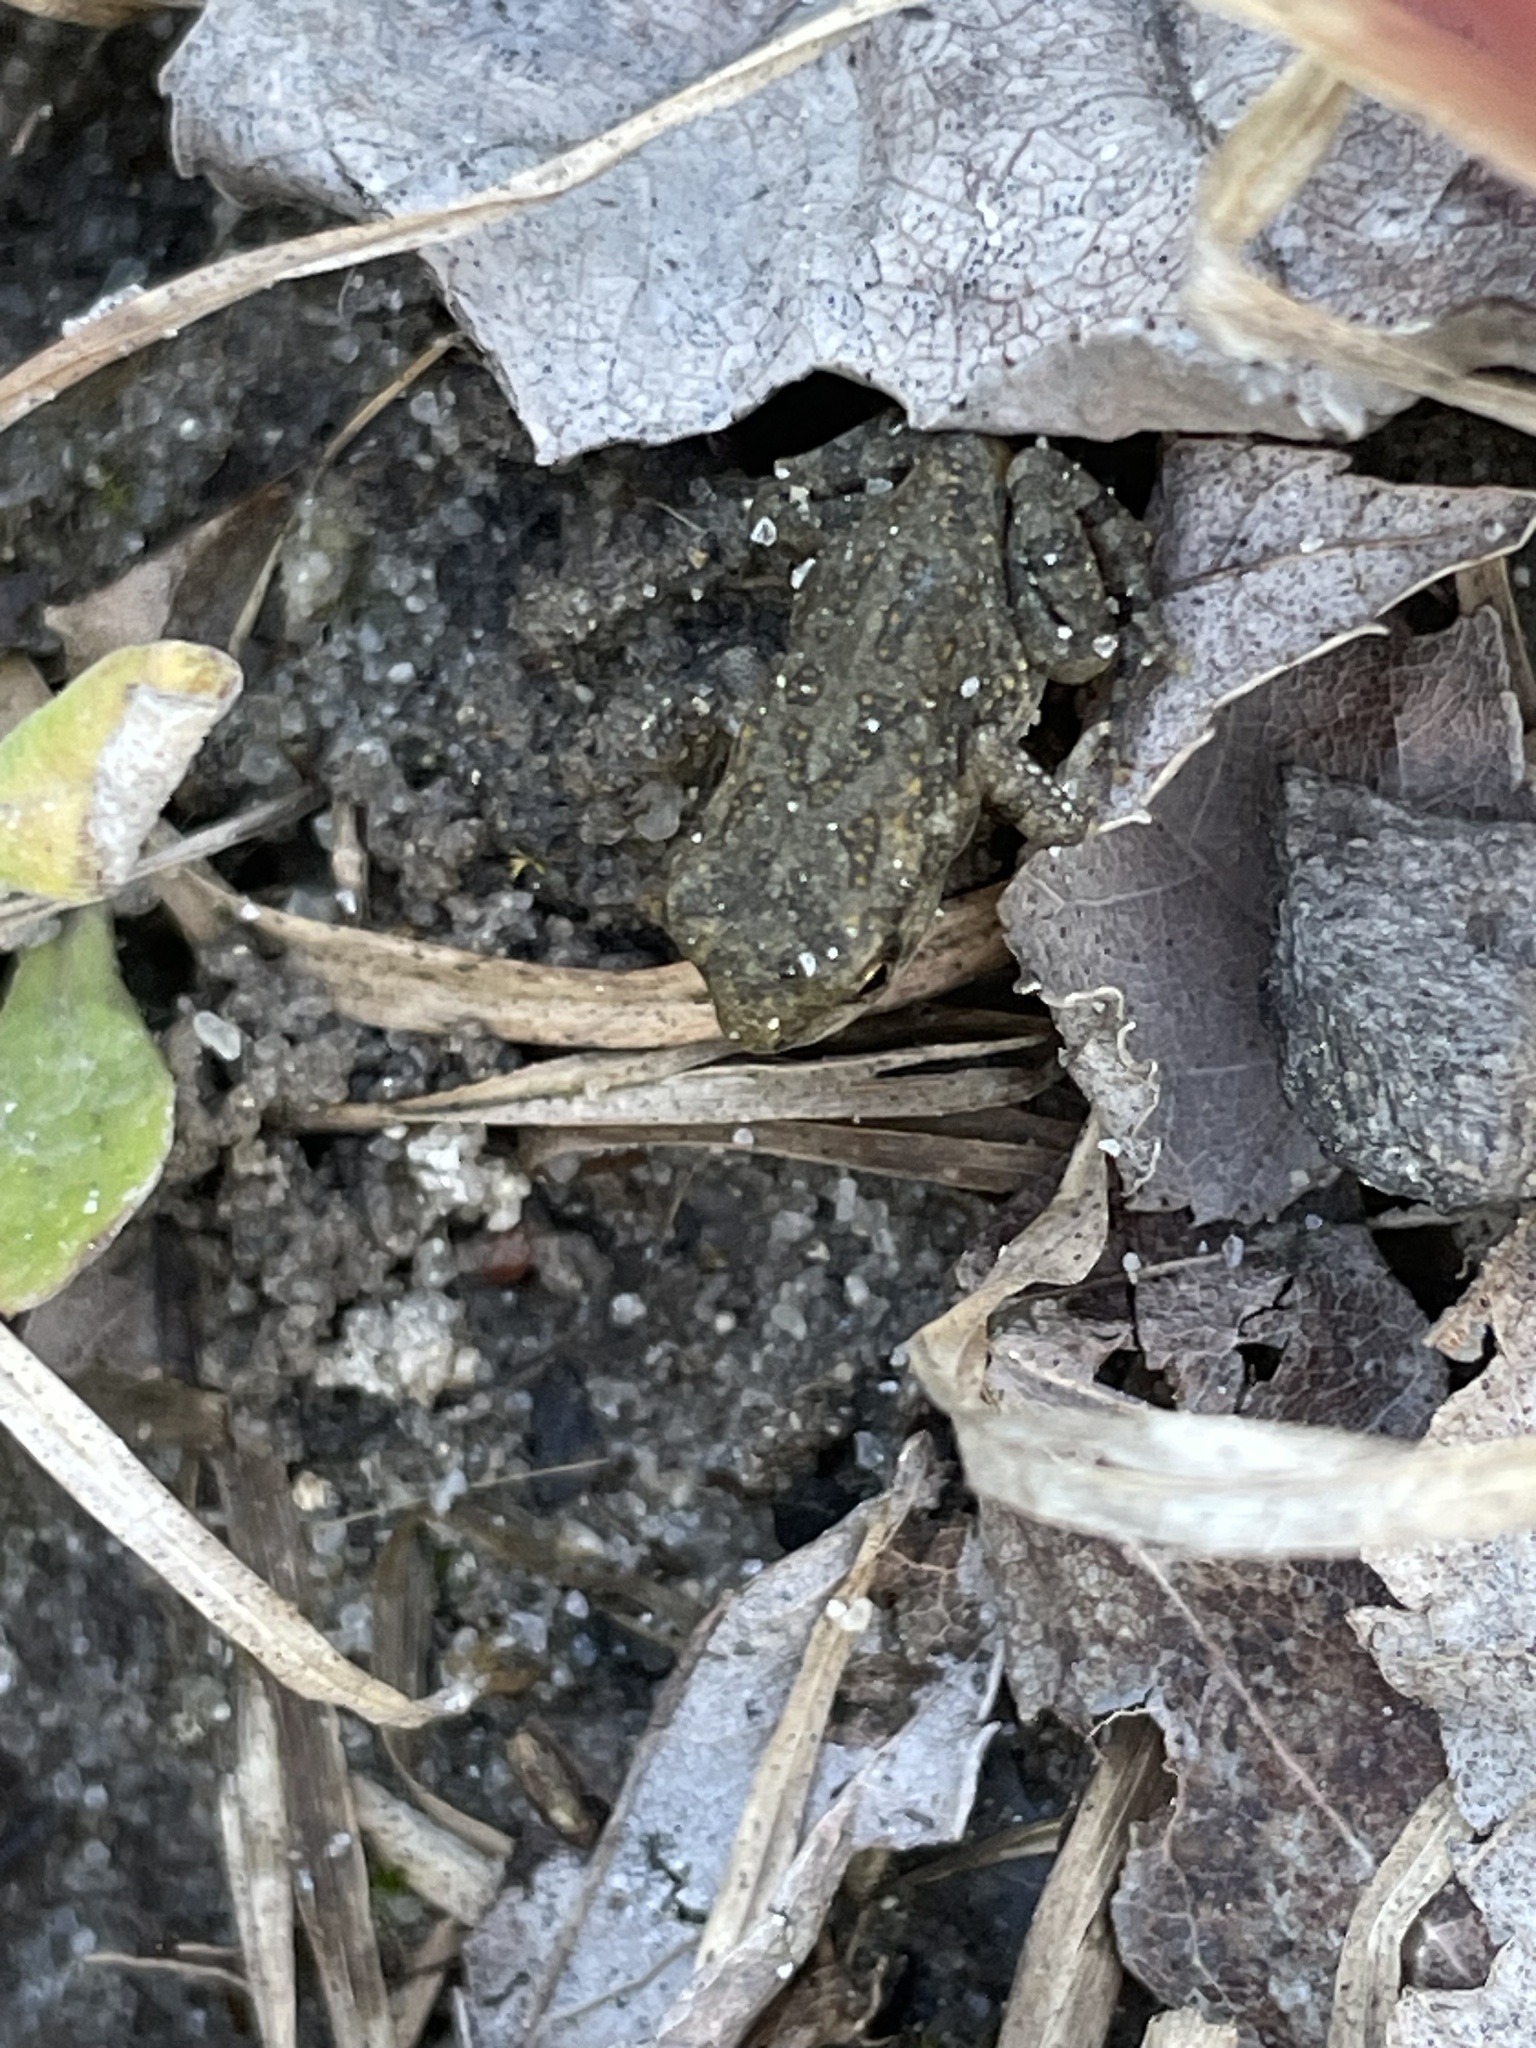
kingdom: Animalia
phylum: Chordata
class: Amphibia
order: Anura
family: Bufonidae
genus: Anaxyrus
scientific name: Anaxyrus fowleri
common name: Fowler's toad
